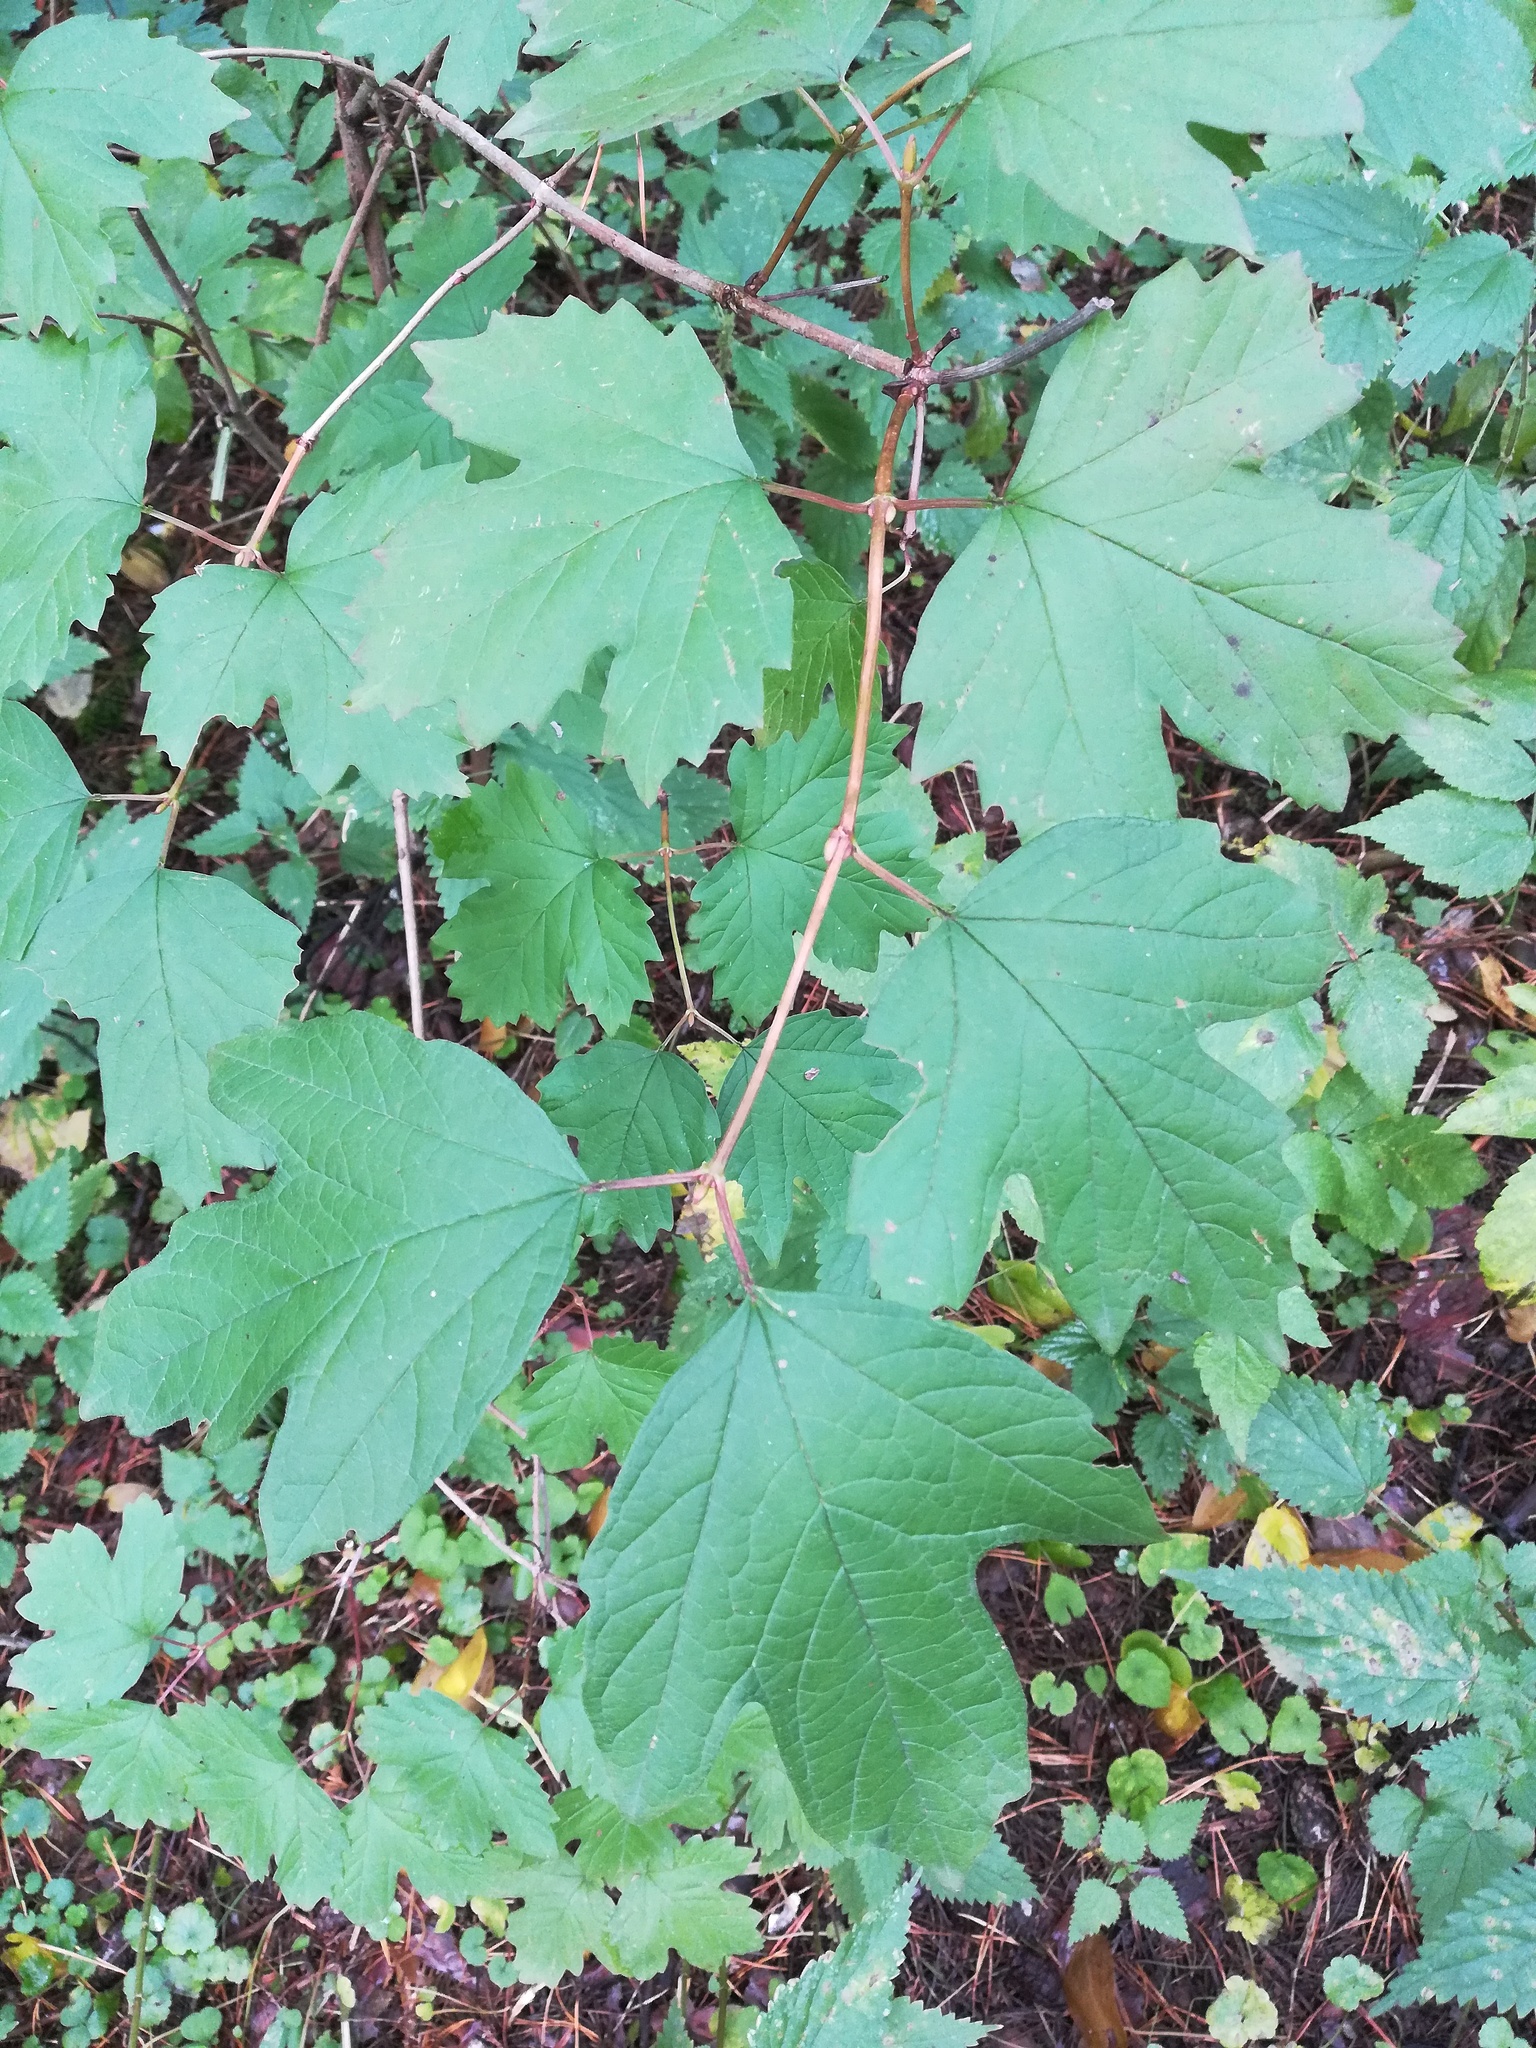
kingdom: Plantae
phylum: Tracheophyta
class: Magnoliopsida
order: Dipsacales
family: Viburnaceae
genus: Viburnum
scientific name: Viburnum opulus
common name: Guelder-rose
